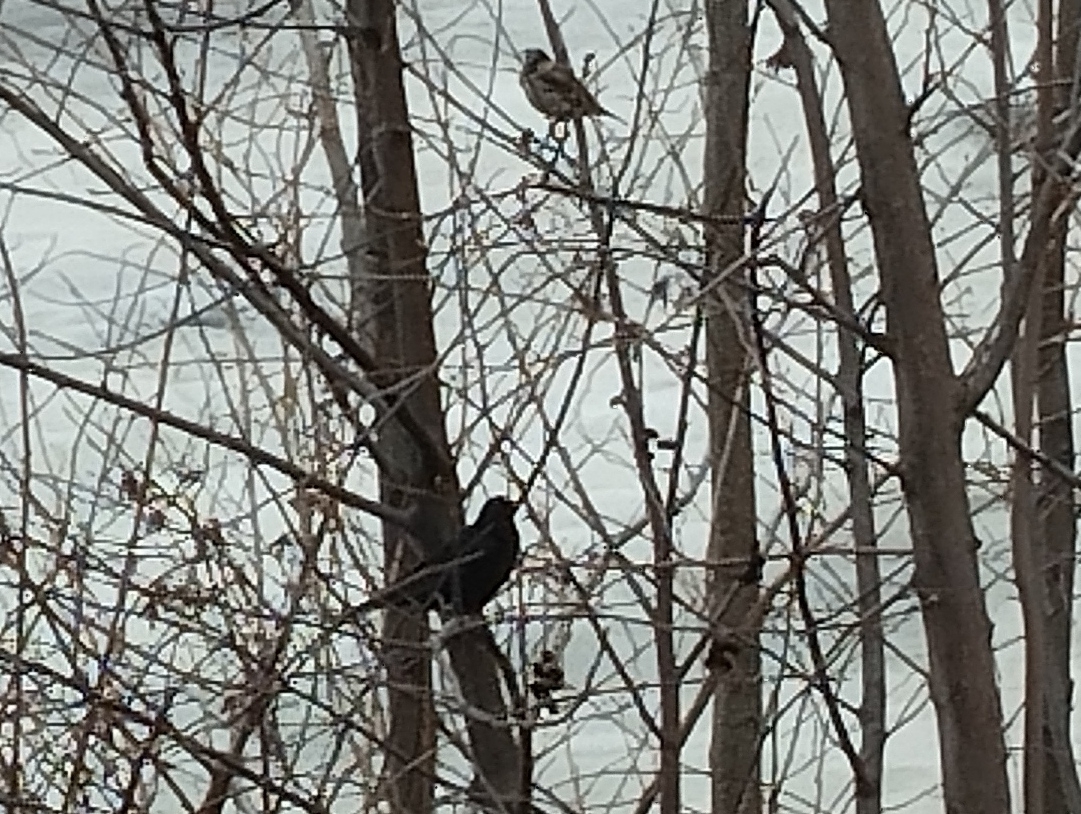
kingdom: Animalia
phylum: Chordata
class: Aves
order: Passeriformes
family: Turdidae
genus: Turdus
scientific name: Turdus merula
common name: Common blackbird
